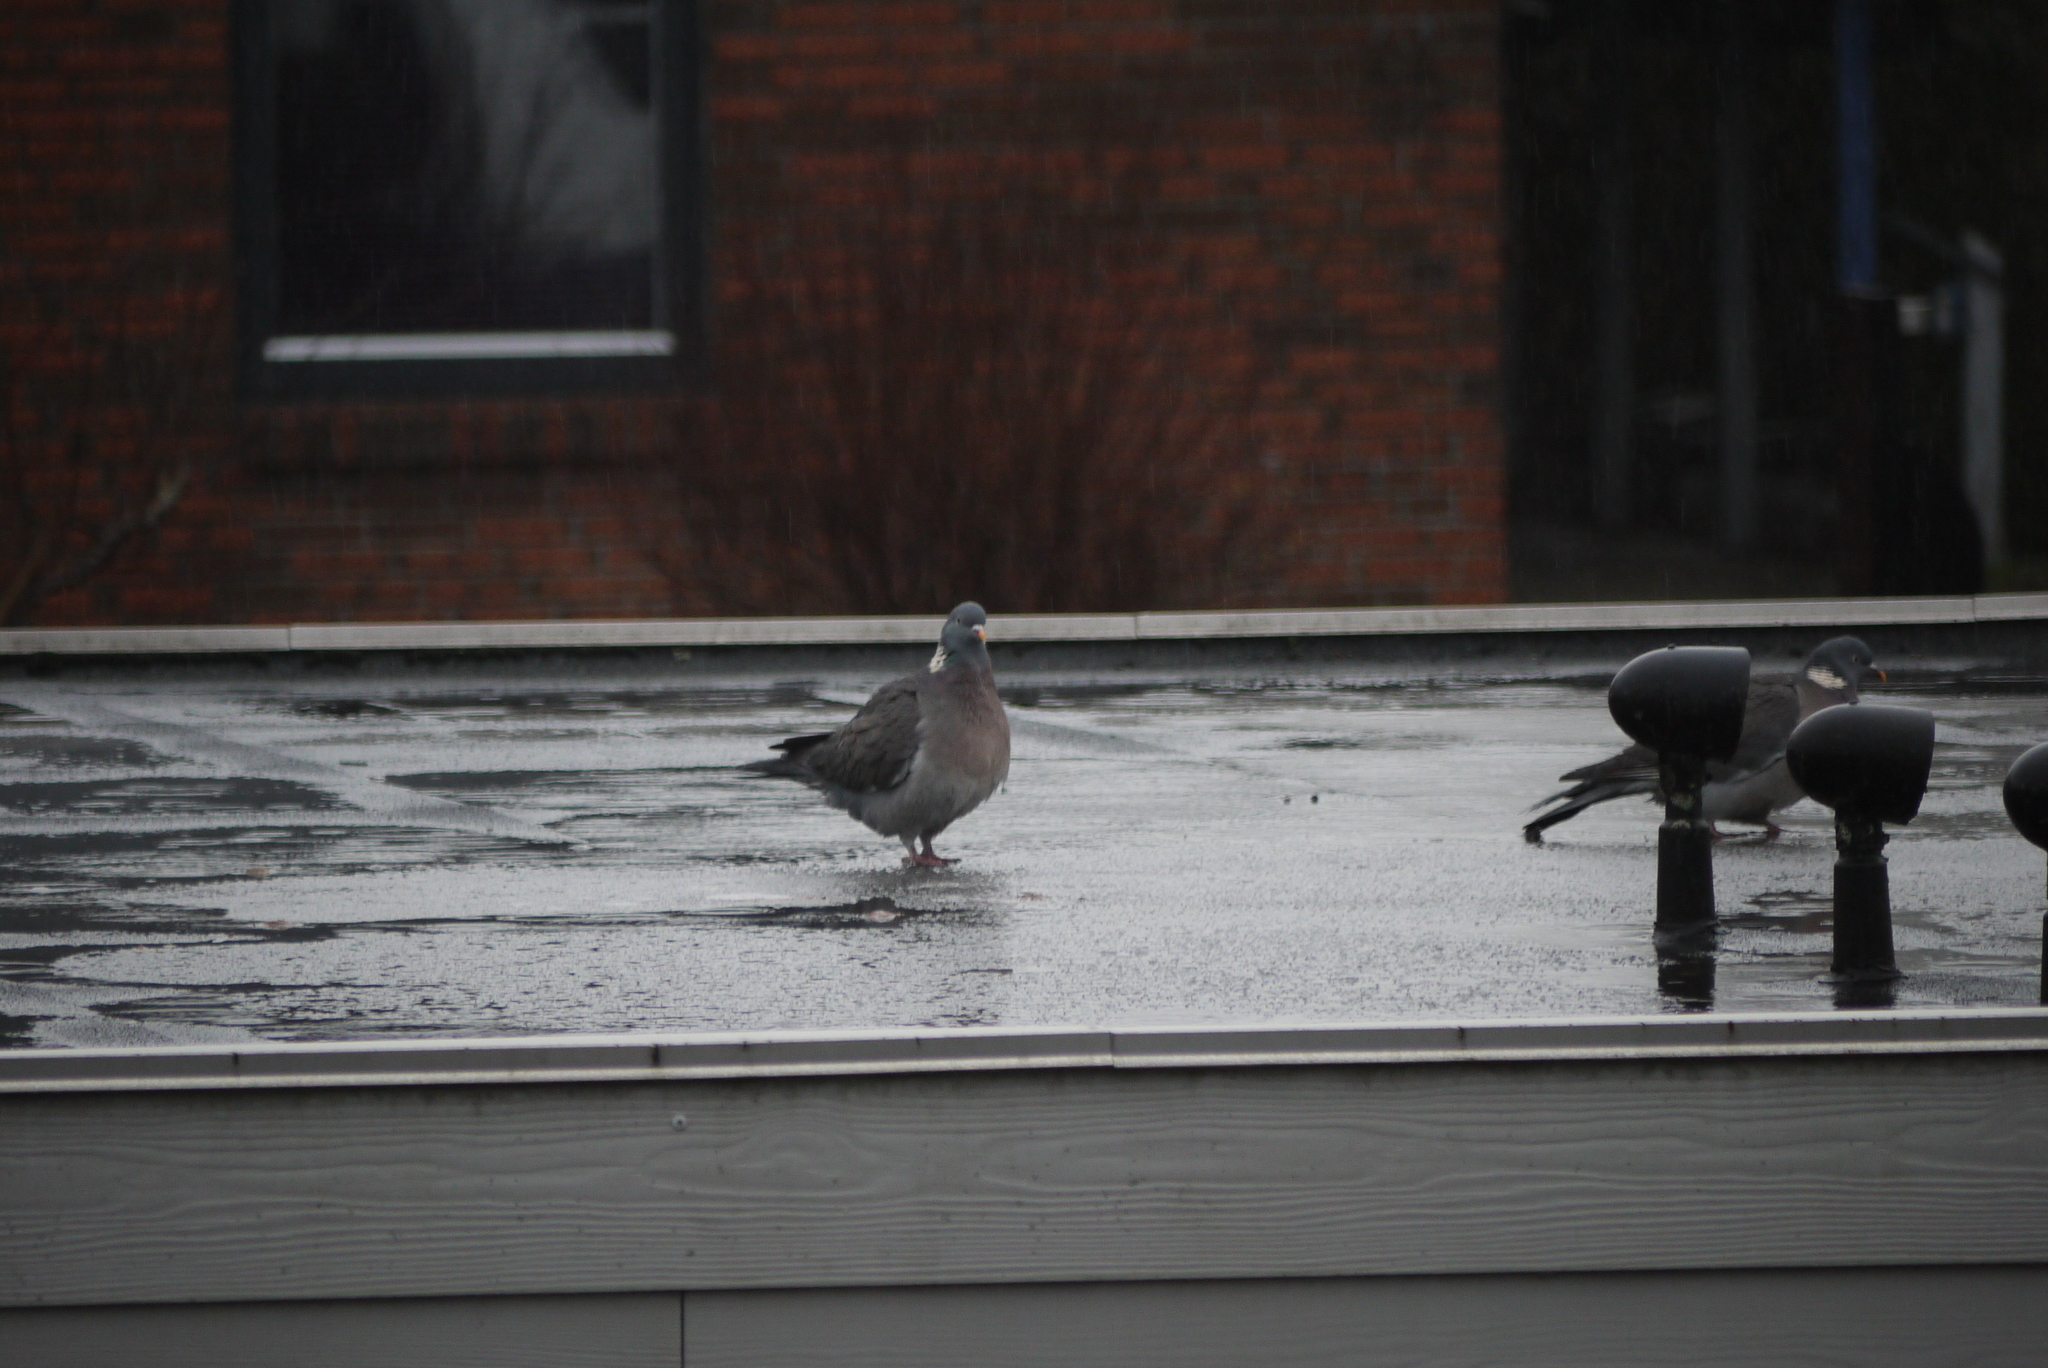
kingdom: Animalia
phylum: Chordata
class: Aves
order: Columbiformes
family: Columbidae
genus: Columba
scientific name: Columba palumbus
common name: Common wood pigeon
